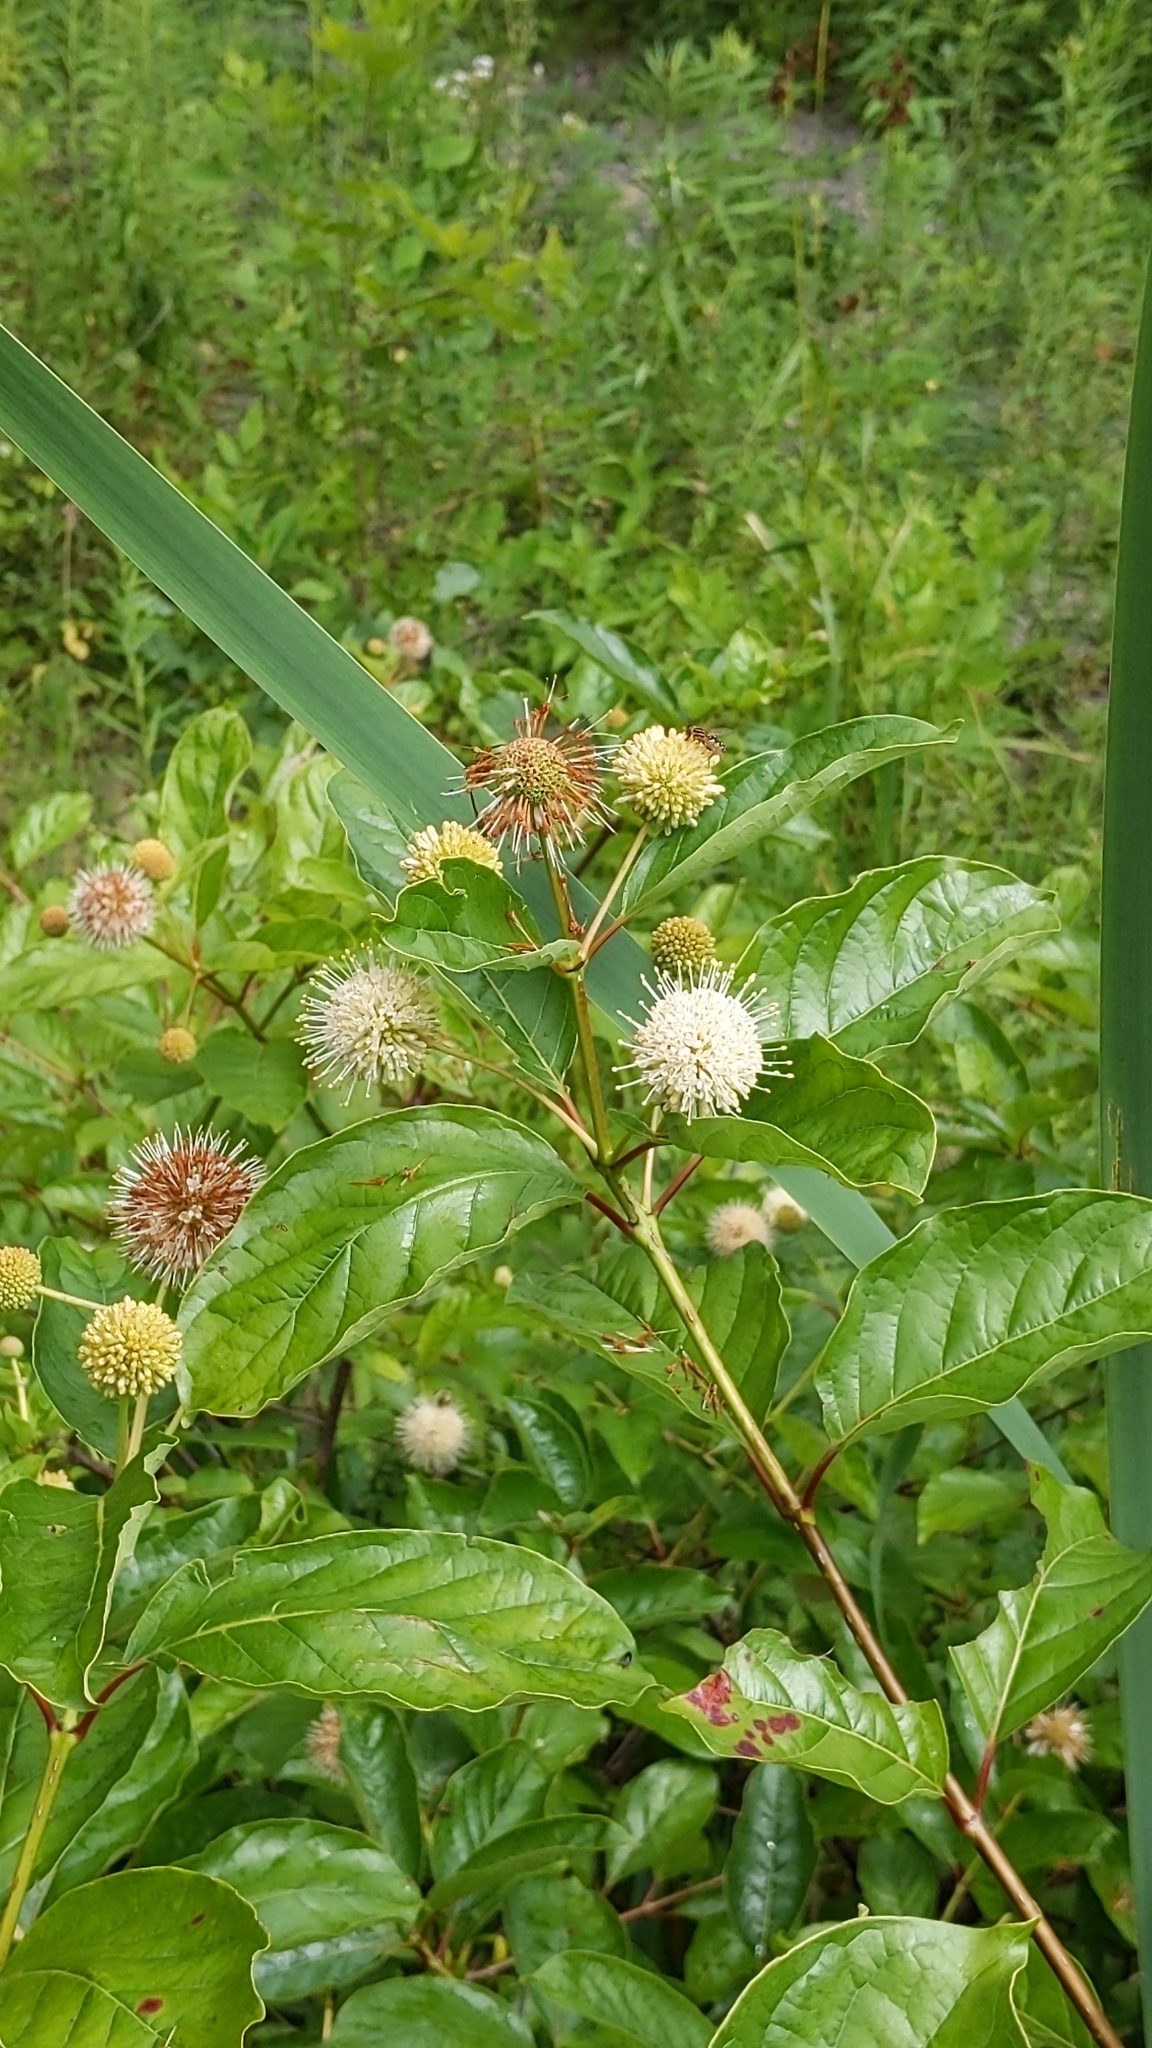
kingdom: Plantae
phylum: Tracheophyta
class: Magnoliopsida
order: Gentianales
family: Rubiaceae
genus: Cephalanthus
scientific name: Cephalanthus occidentalis
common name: Button-willow
